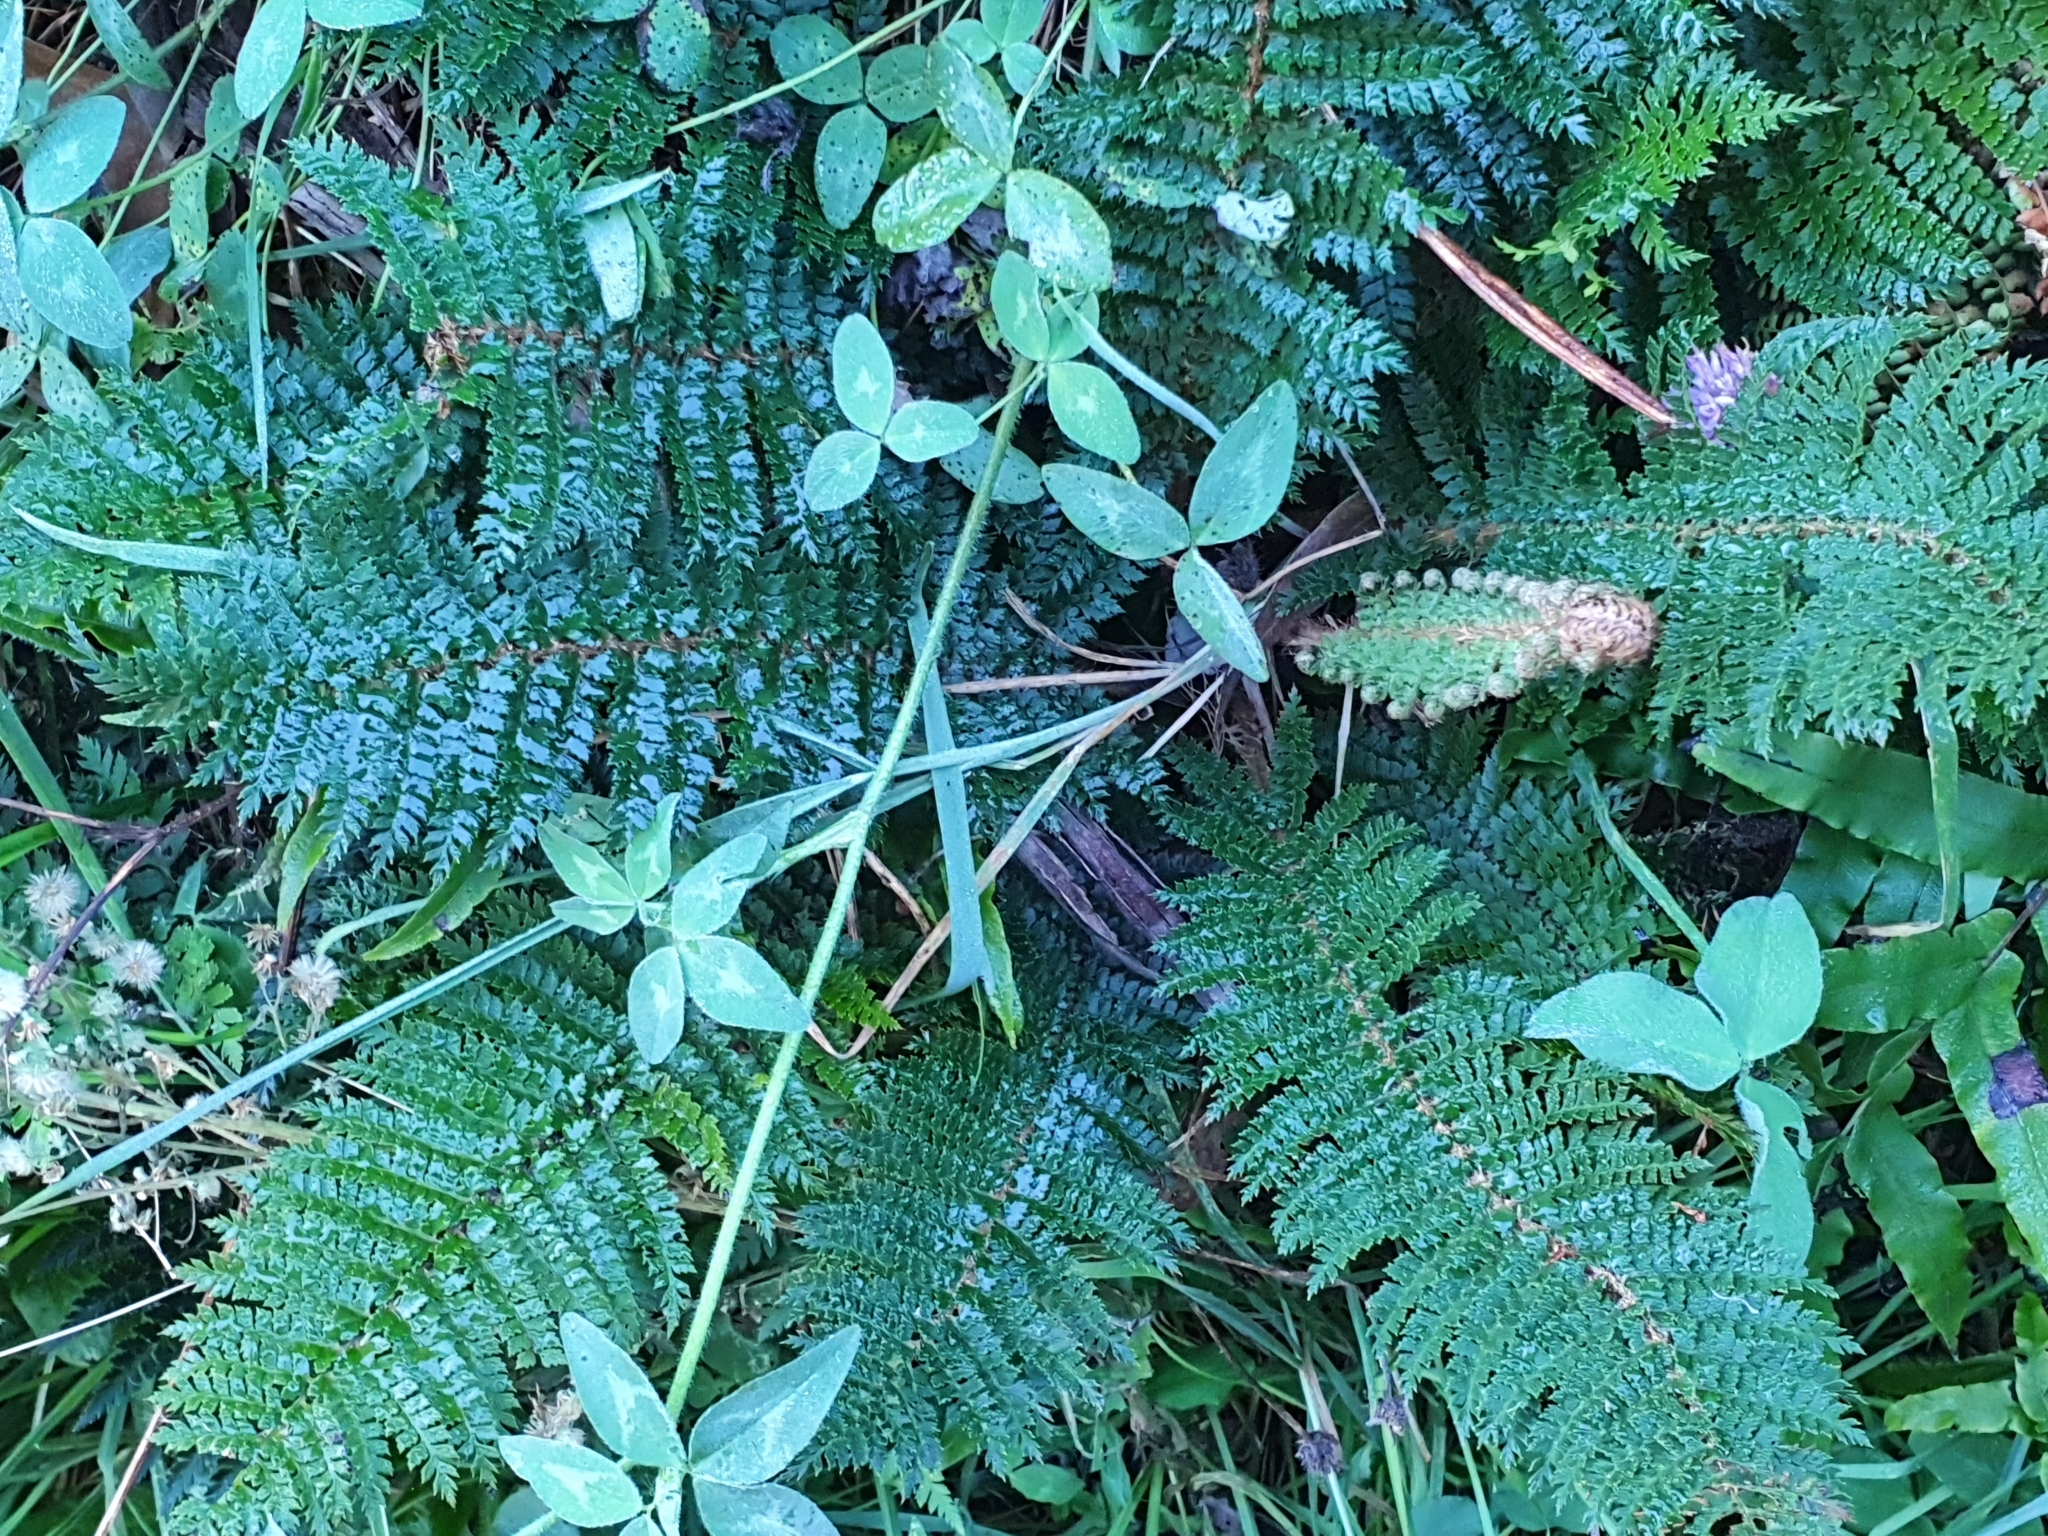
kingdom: Plantae
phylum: Tracheophyta
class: Polypodiopsida
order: Polypodiales
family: Dryopteridaceae
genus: Polystichum
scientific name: Polystichum vestitum
